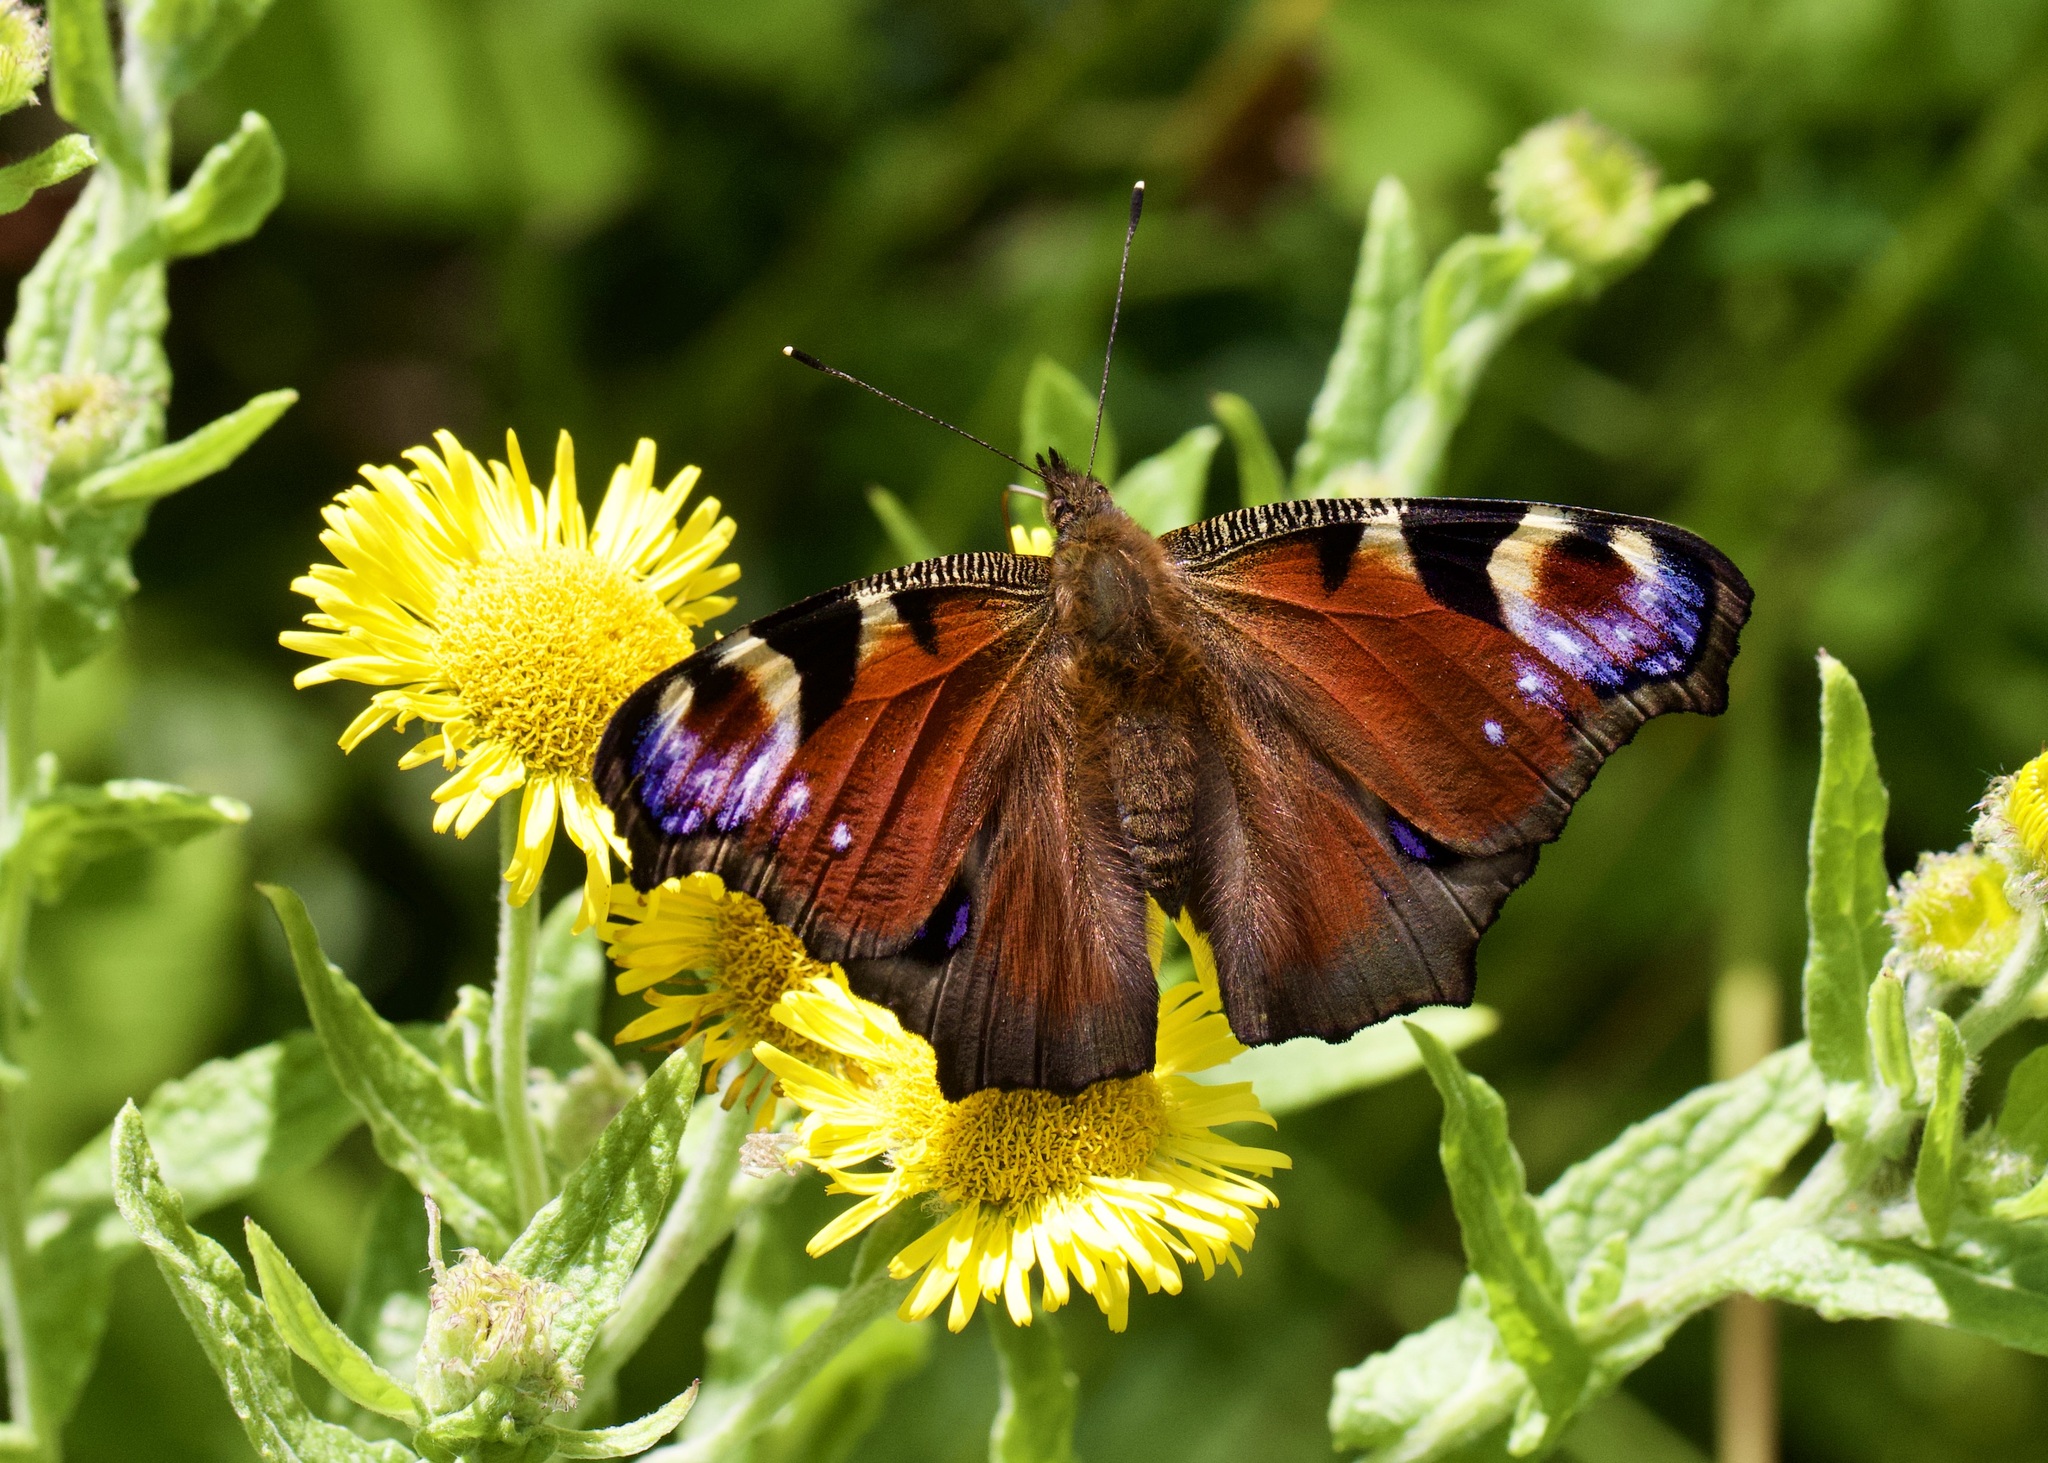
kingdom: Animalia
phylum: Arthropoda
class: Insecta
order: Lepidoptera
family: Nymphalidae
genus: Aglais
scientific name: Aglais io
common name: Peacock
